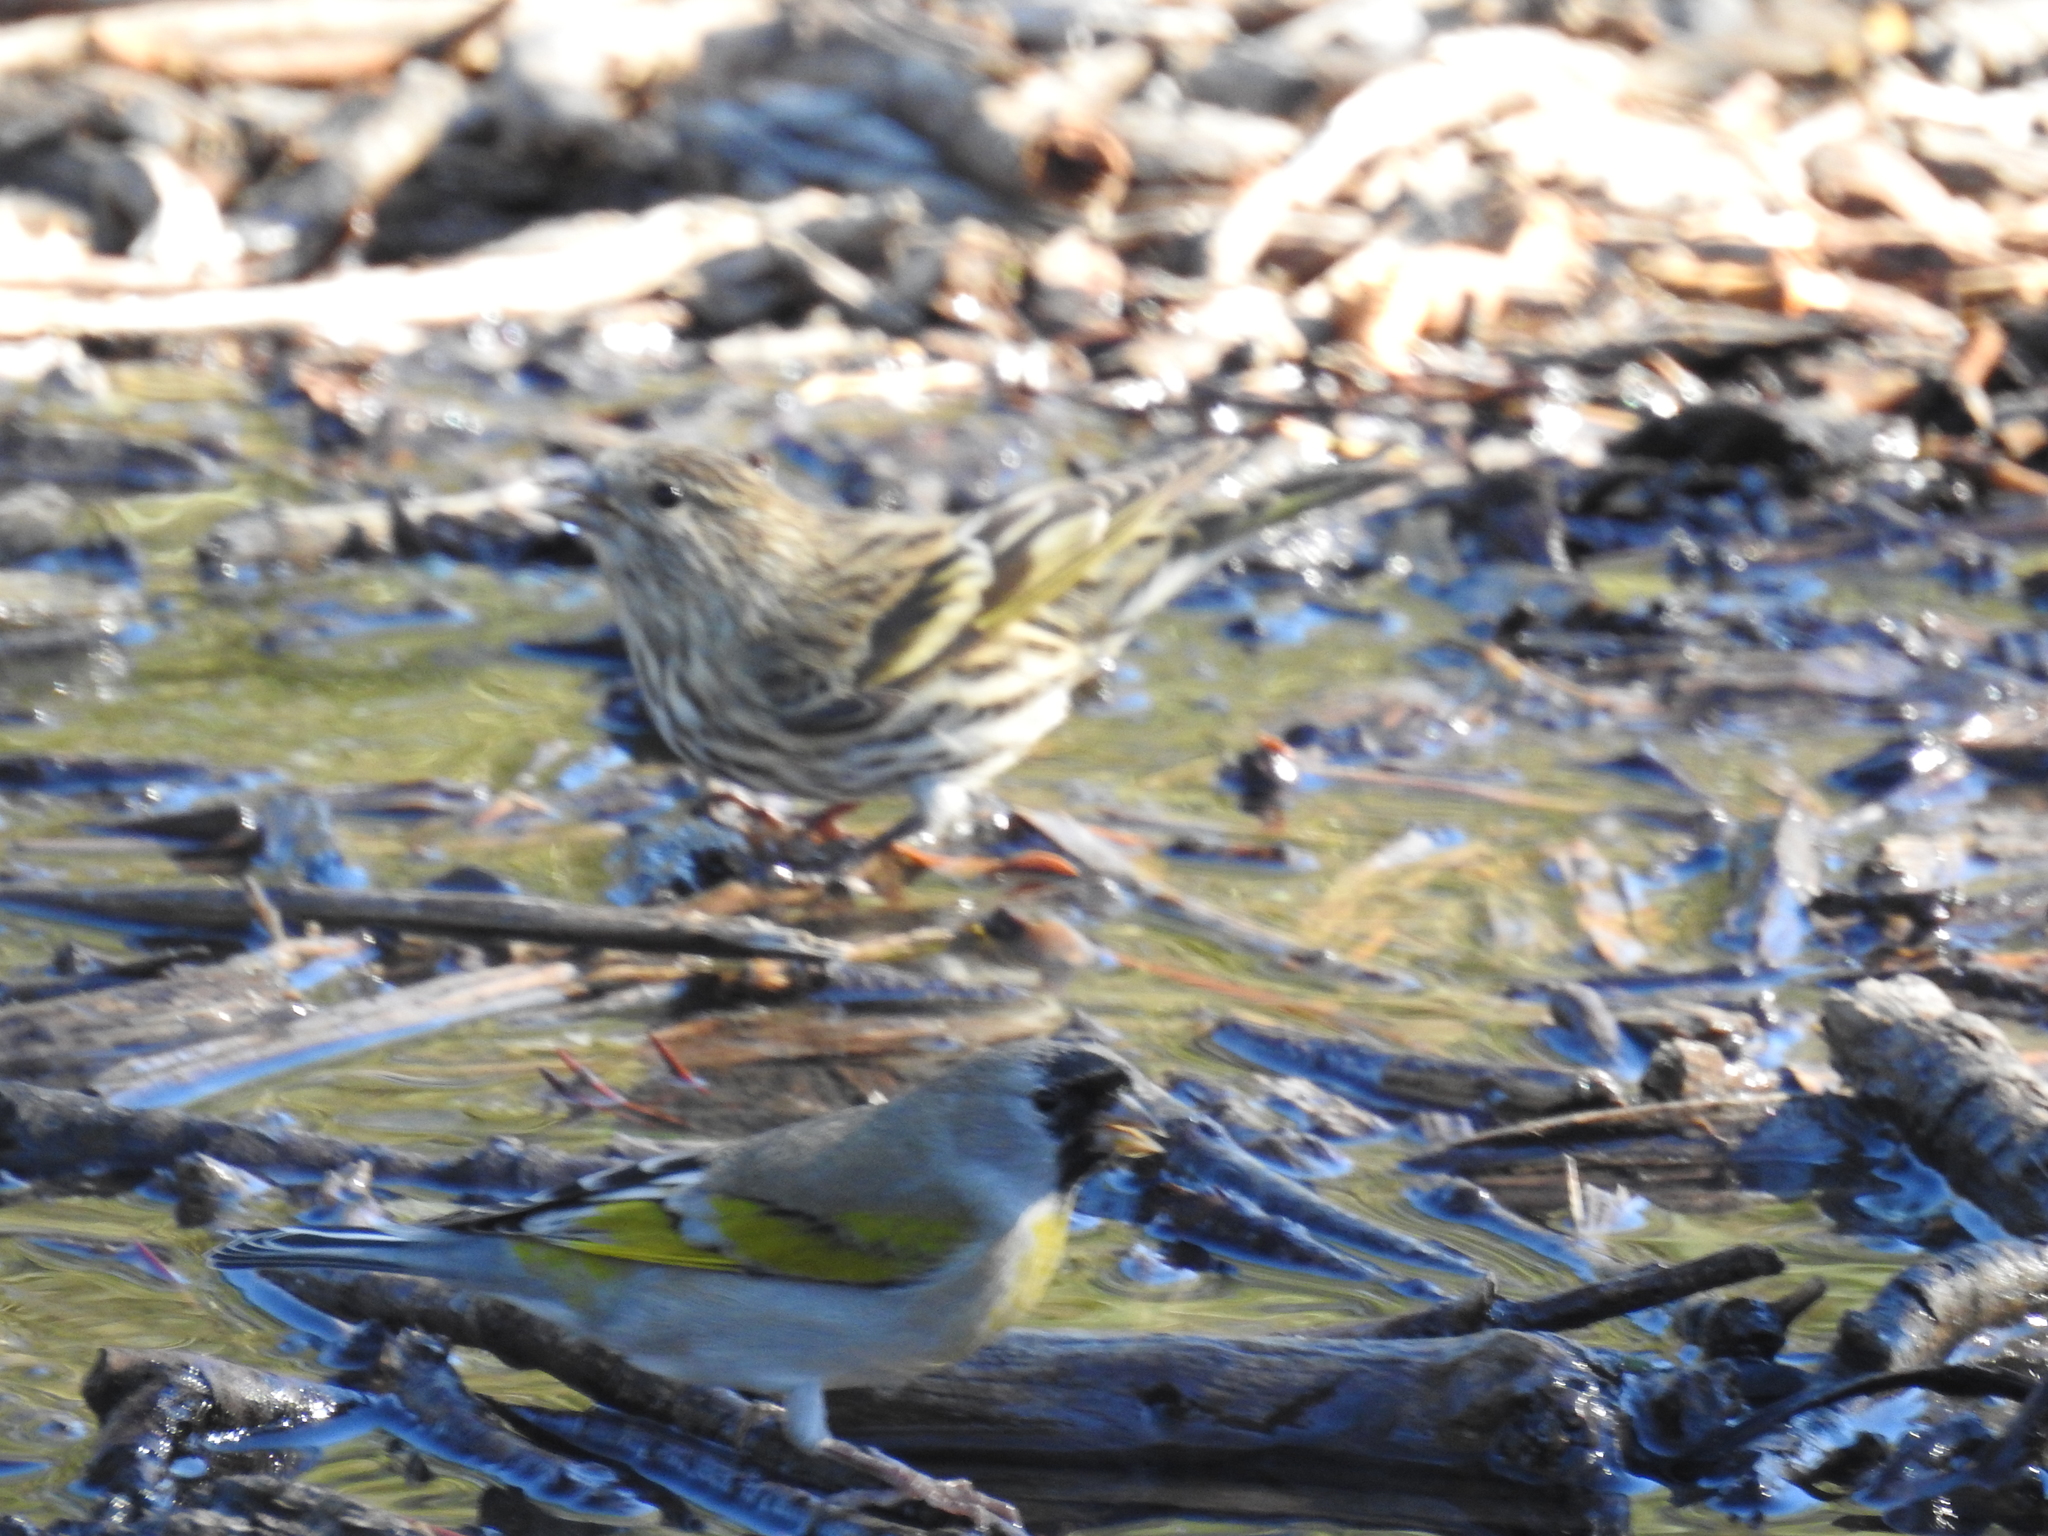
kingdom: Animalia
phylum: Chordata
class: Aves
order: Passeriformes
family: Fringillidae
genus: Spinus
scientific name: Spinus lawrencei
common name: Lawrence's goldfinch
